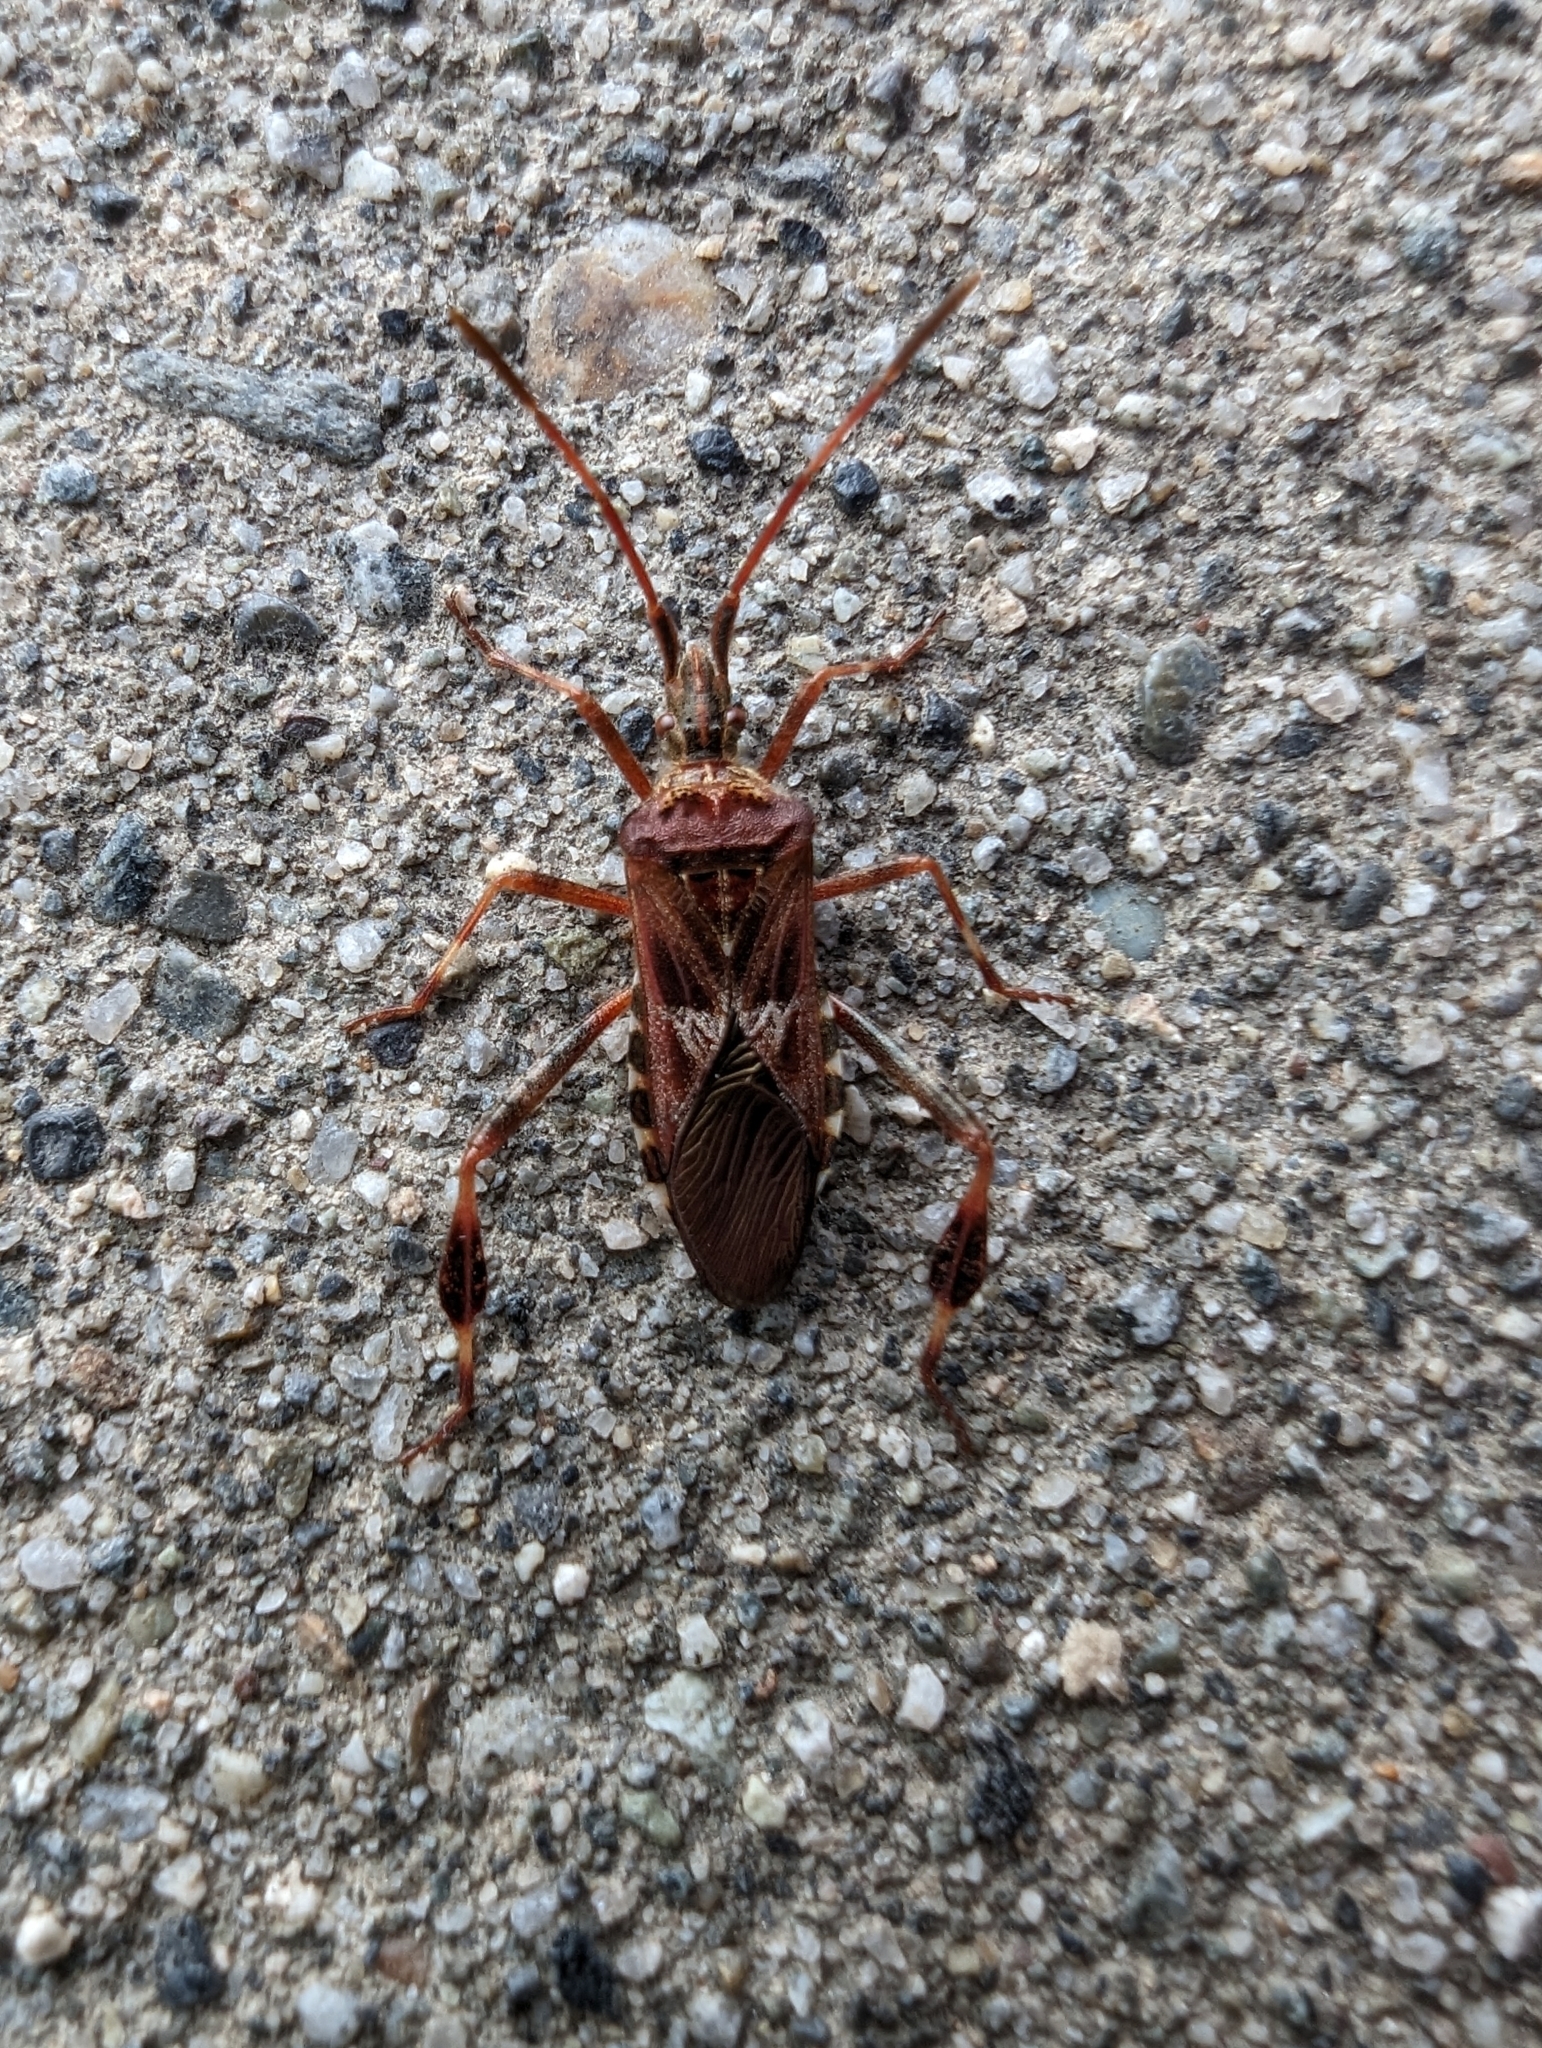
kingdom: Animalia
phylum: Arthropoda
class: Insecta
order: Hemiptera
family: Coreidae
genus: Leptoglossus
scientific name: Leptoglossus occidentalis
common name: Western conifer-seed bug
